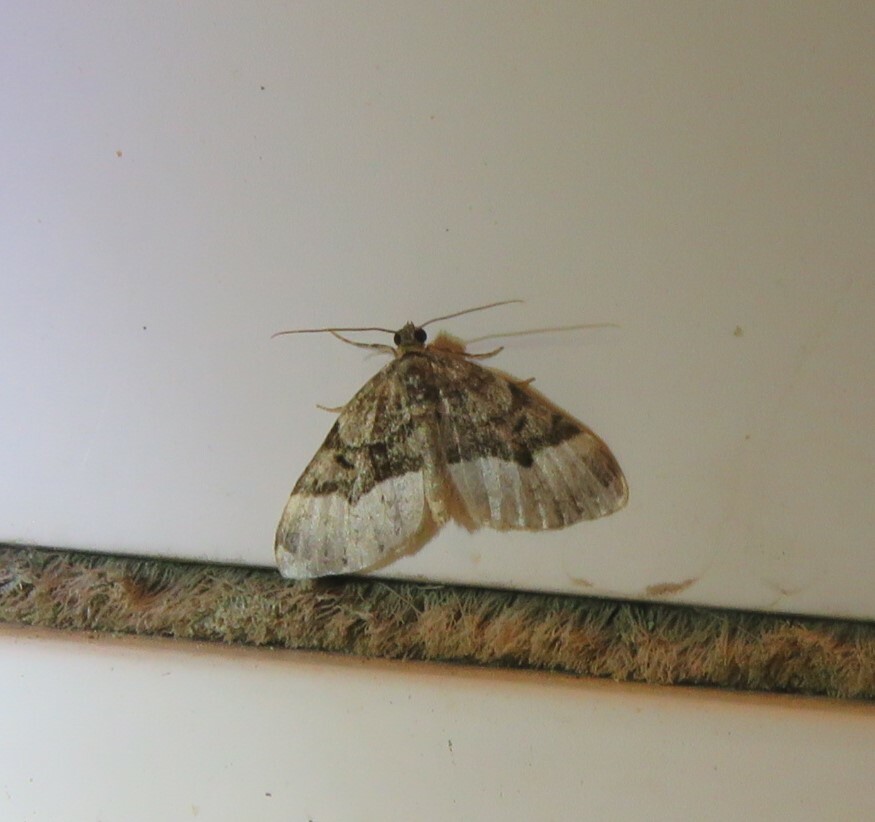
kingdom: Animalia
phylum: Arthropoda
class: Insecta
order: Lepidoptera
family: Geometridae
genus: Euphyia
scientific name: Euphyia intermediata
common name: Sharp-angled carpet
